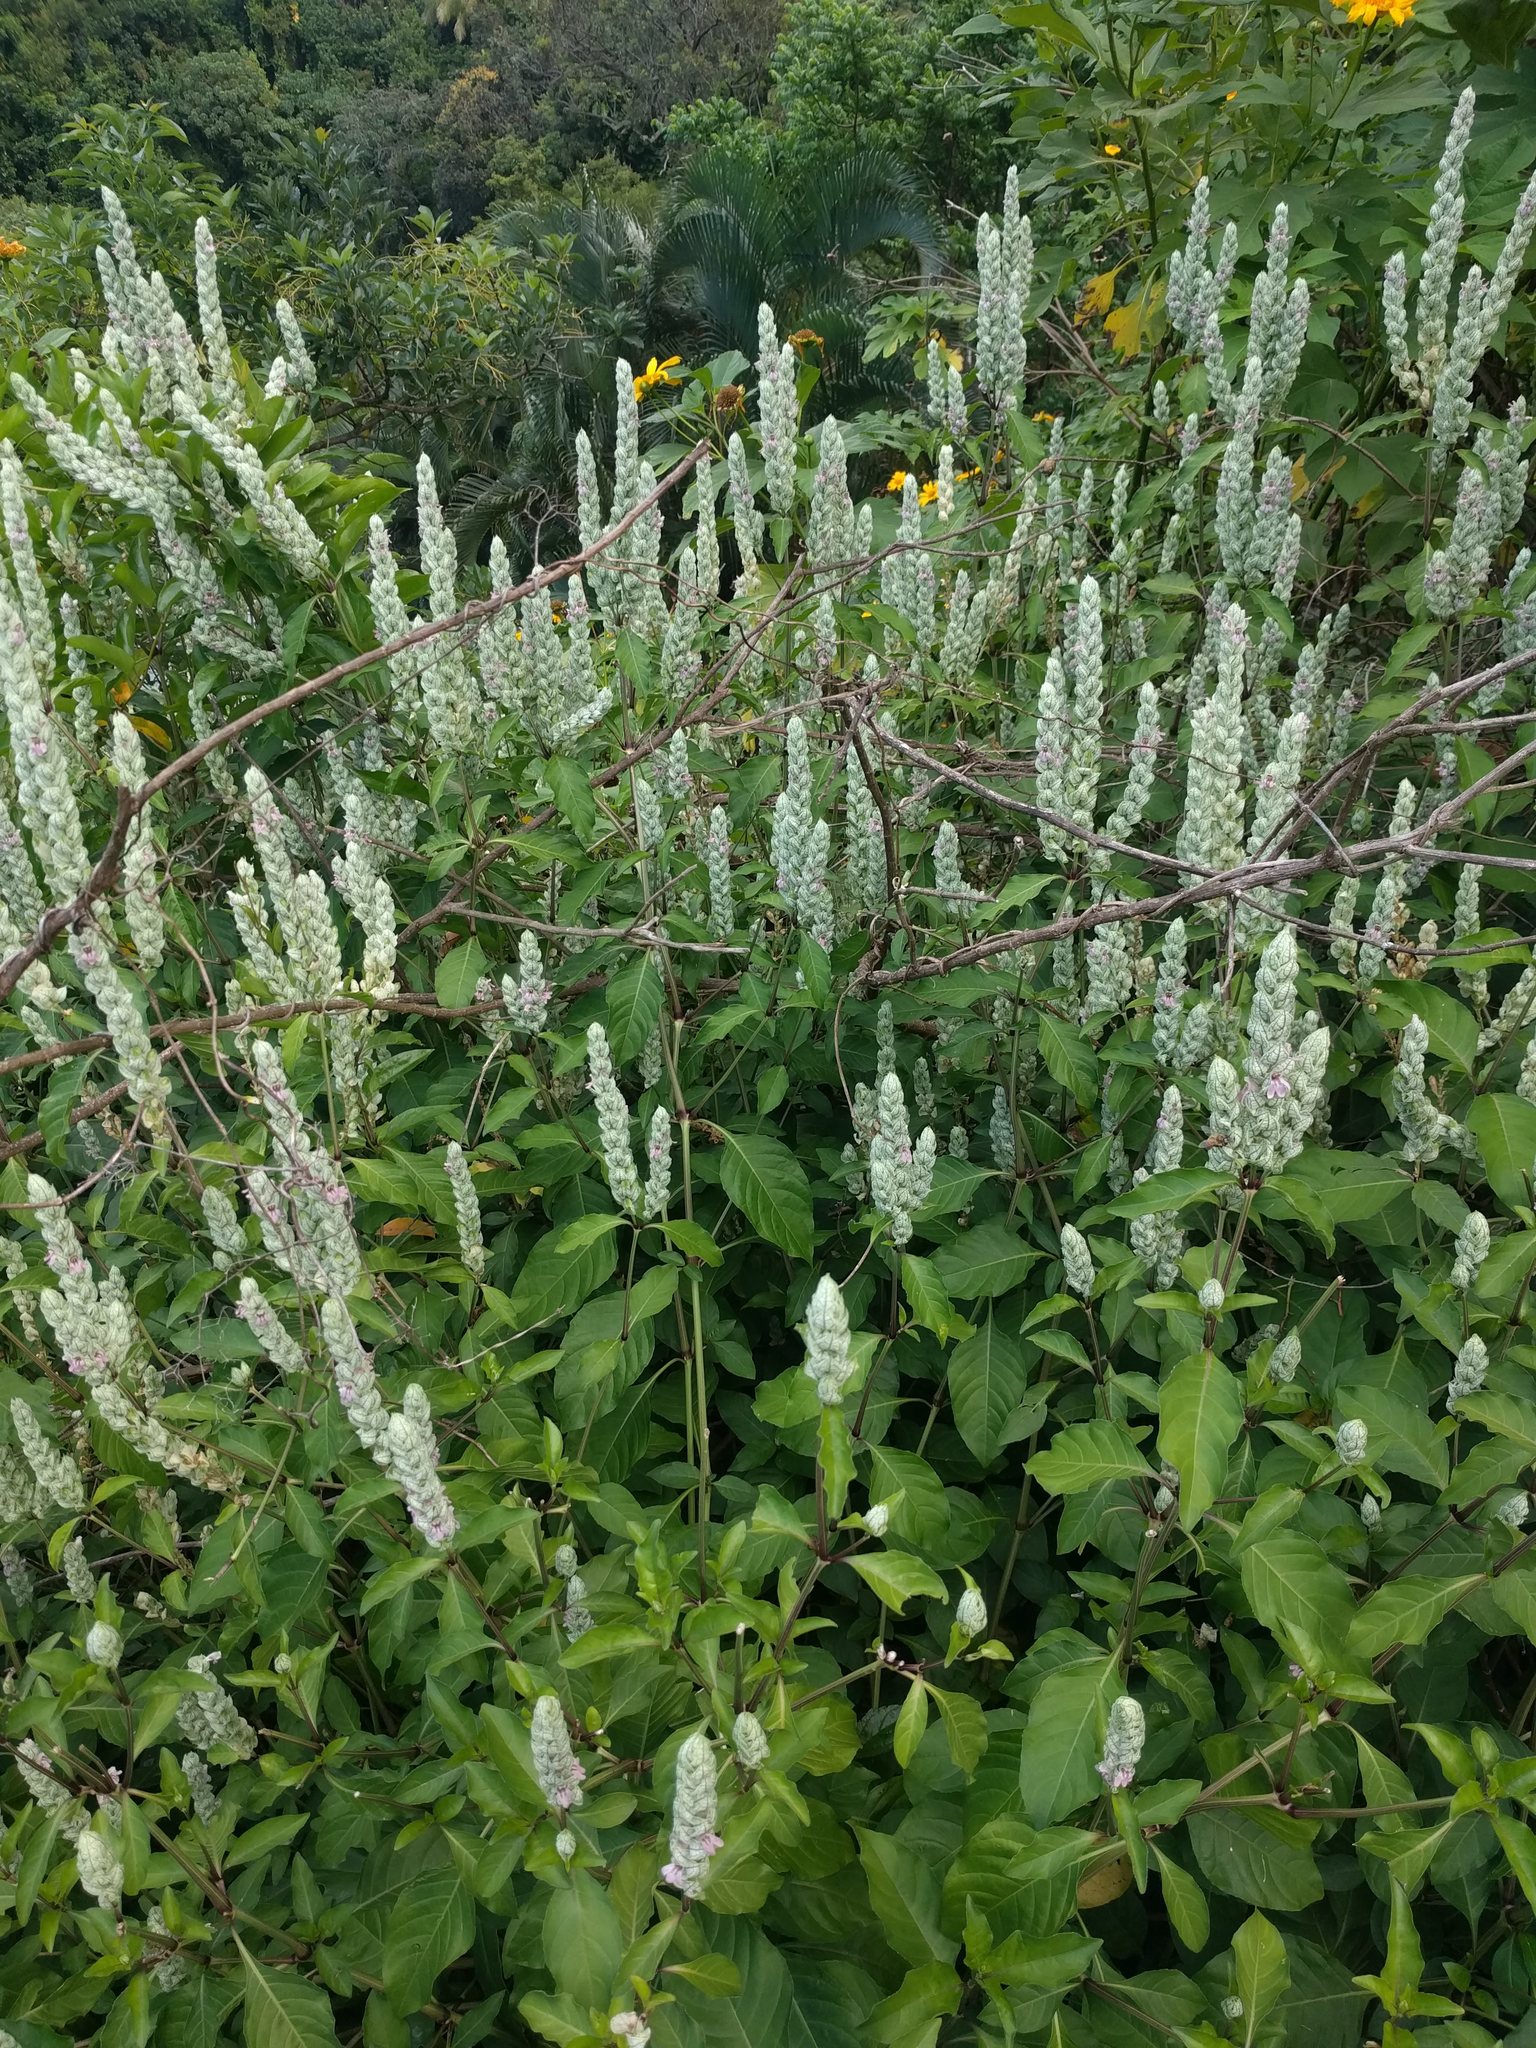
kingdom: Plantae
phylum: Tracheophyta
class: Magnoliopsida
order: Lamiales
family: Acanthaceae
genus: Justicia
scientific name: Justicia betonica
